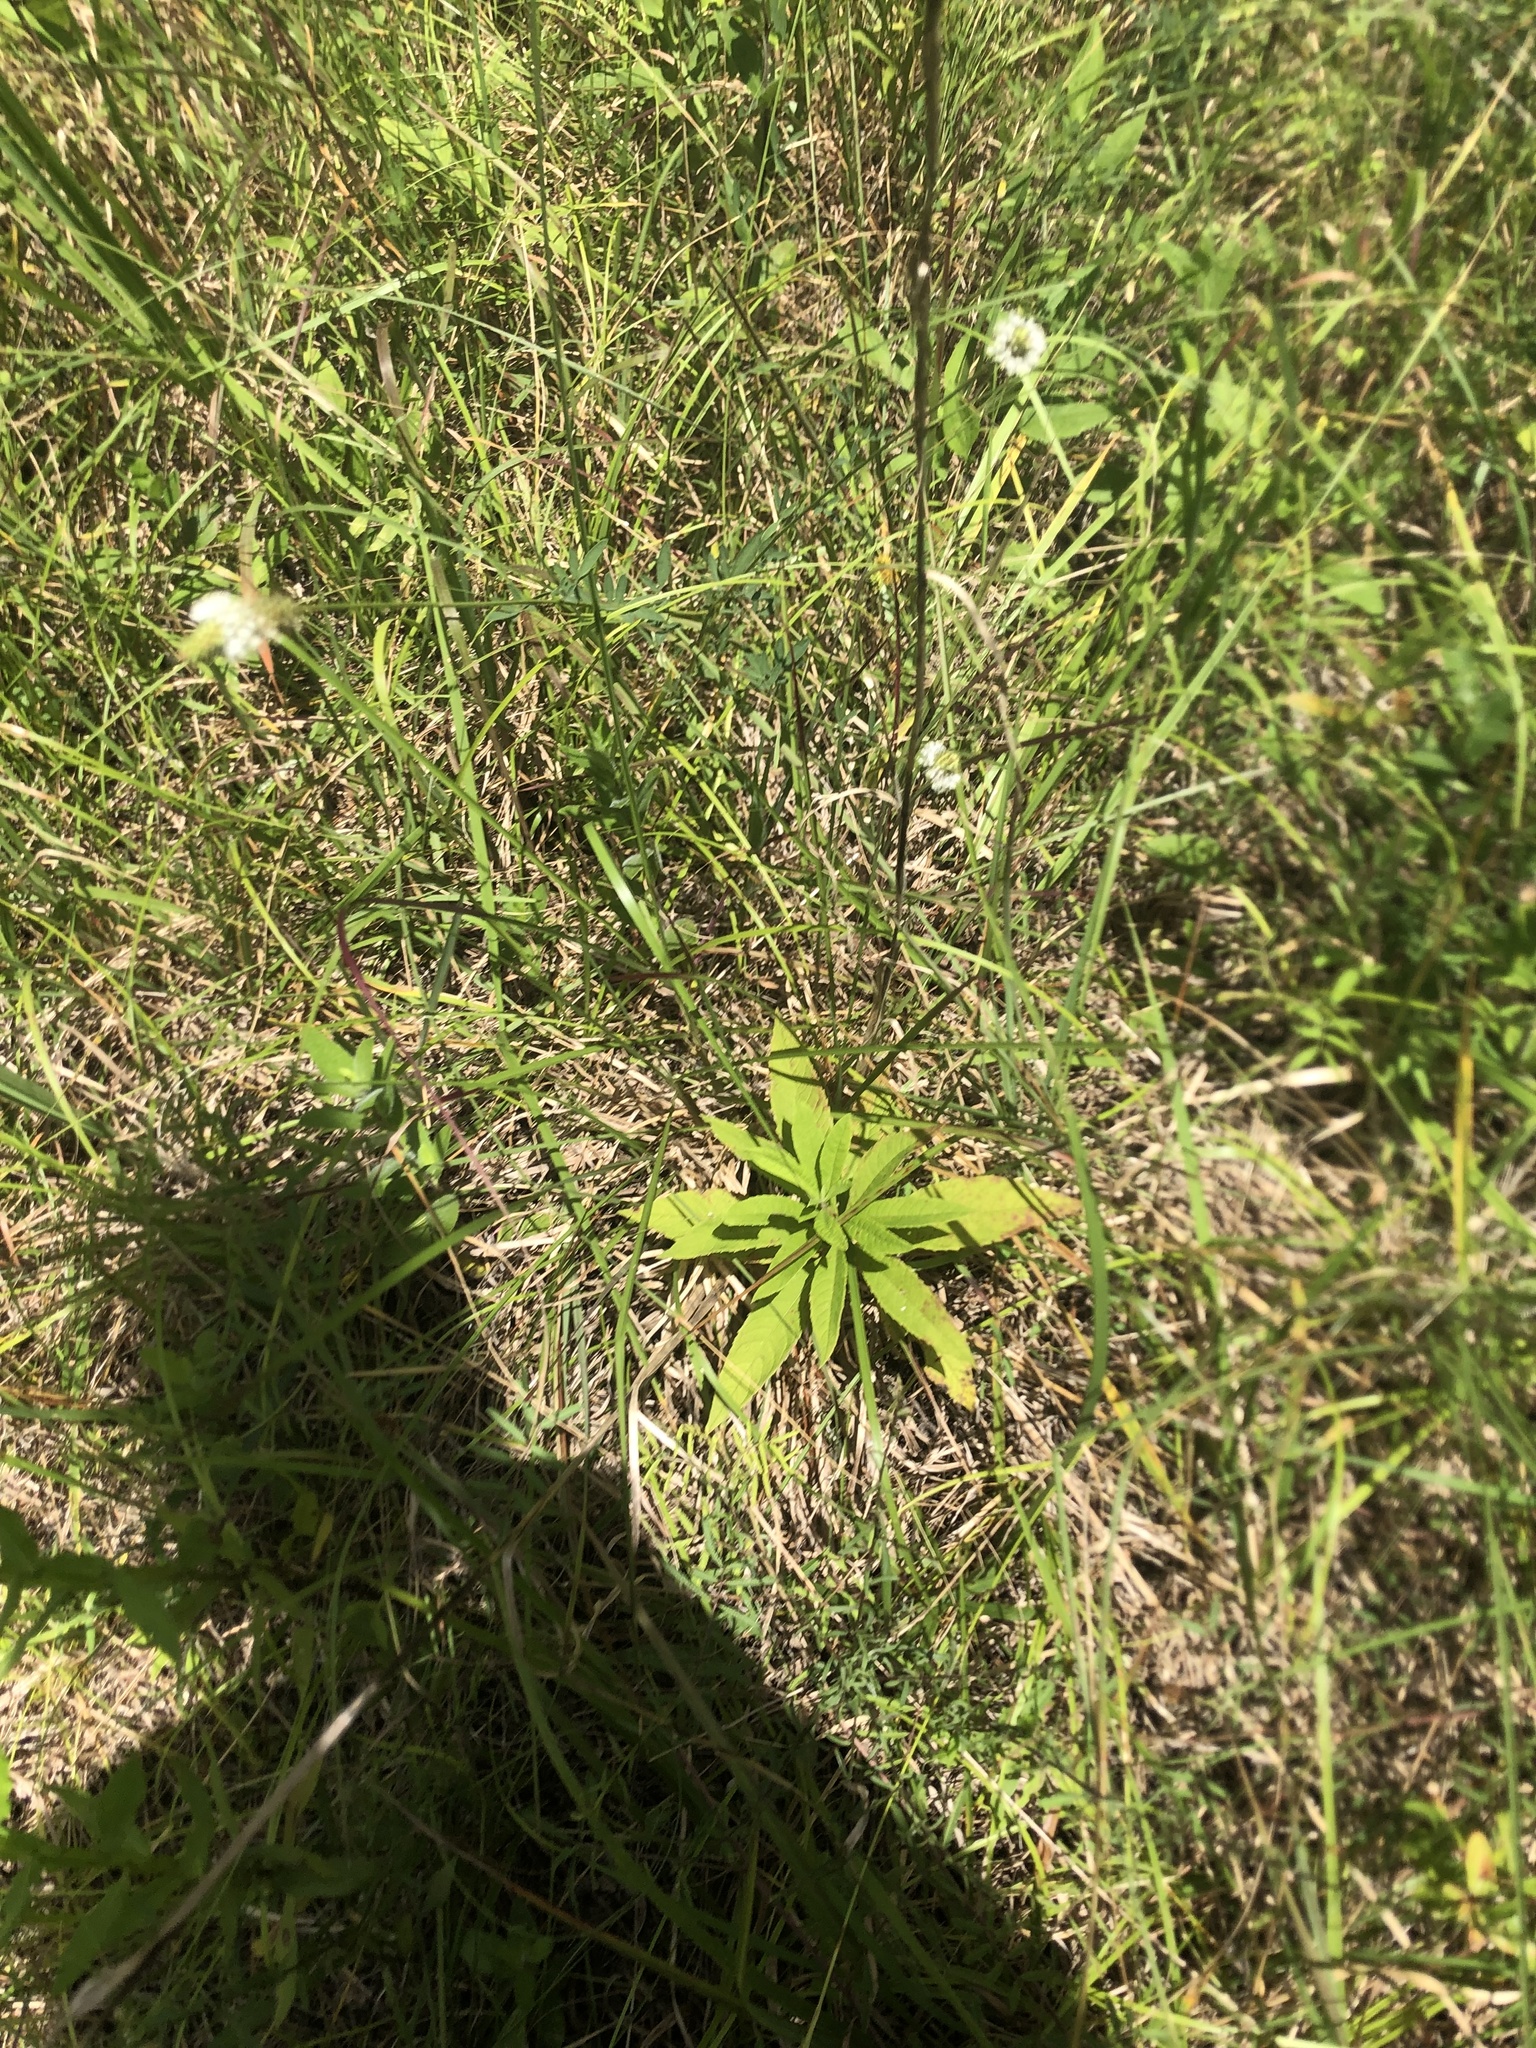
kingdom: Plantae
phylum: Tracheophyta
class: Magnoliopsida
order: Fabales
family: Fabaceae
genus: Dalea
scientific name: Dalea candida
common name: White prairie-clover
